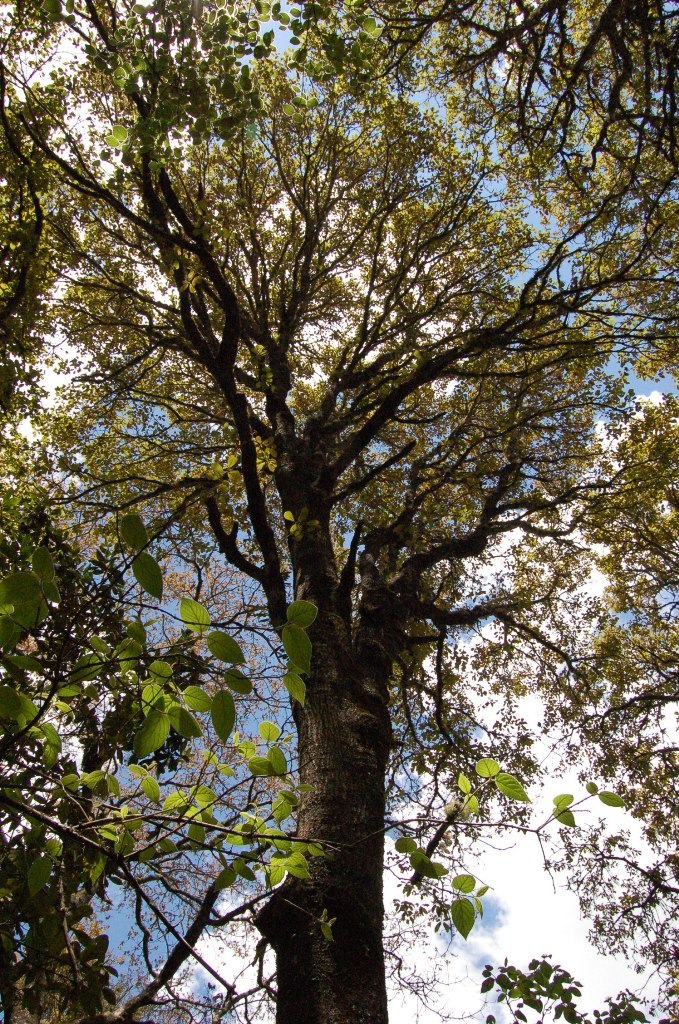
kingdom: Plantae
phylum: Tracheophyta
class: Magnoliopsida
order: Fagales
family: Fagaceae
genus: Quercus
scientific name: Quercus calophylla
